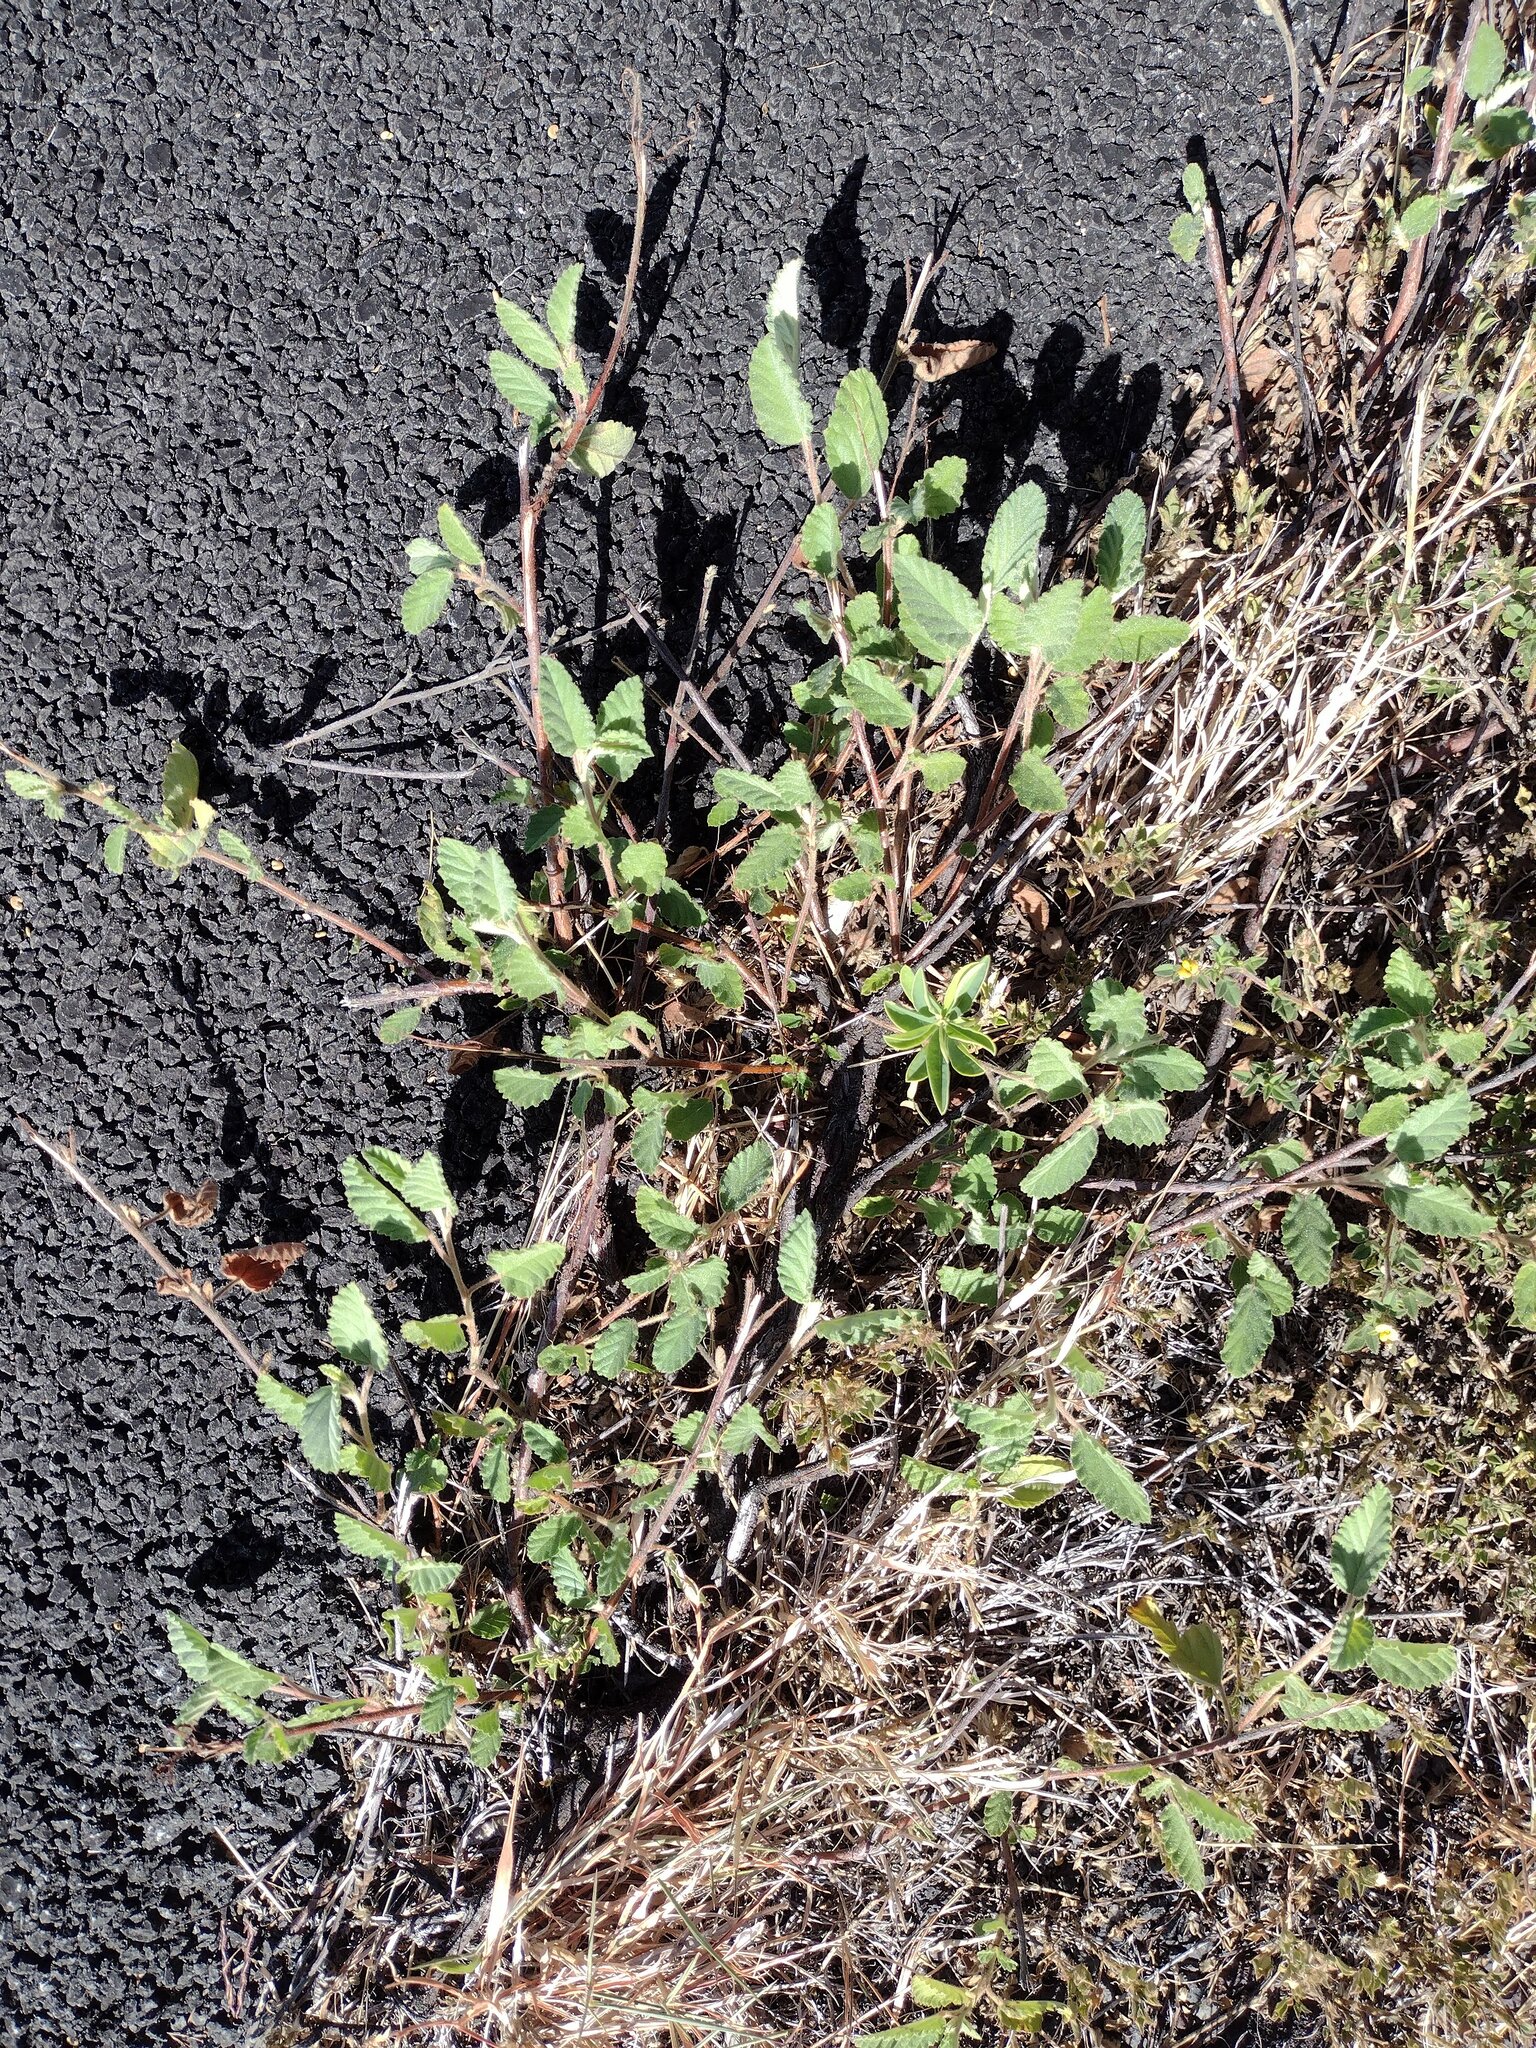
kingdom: Plantae
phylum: Tracheophyta
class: Magnoliopsida
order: Malvales
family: Malvaceae
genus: Waltheria
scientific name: Waltheria indica
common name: Leather-coat
